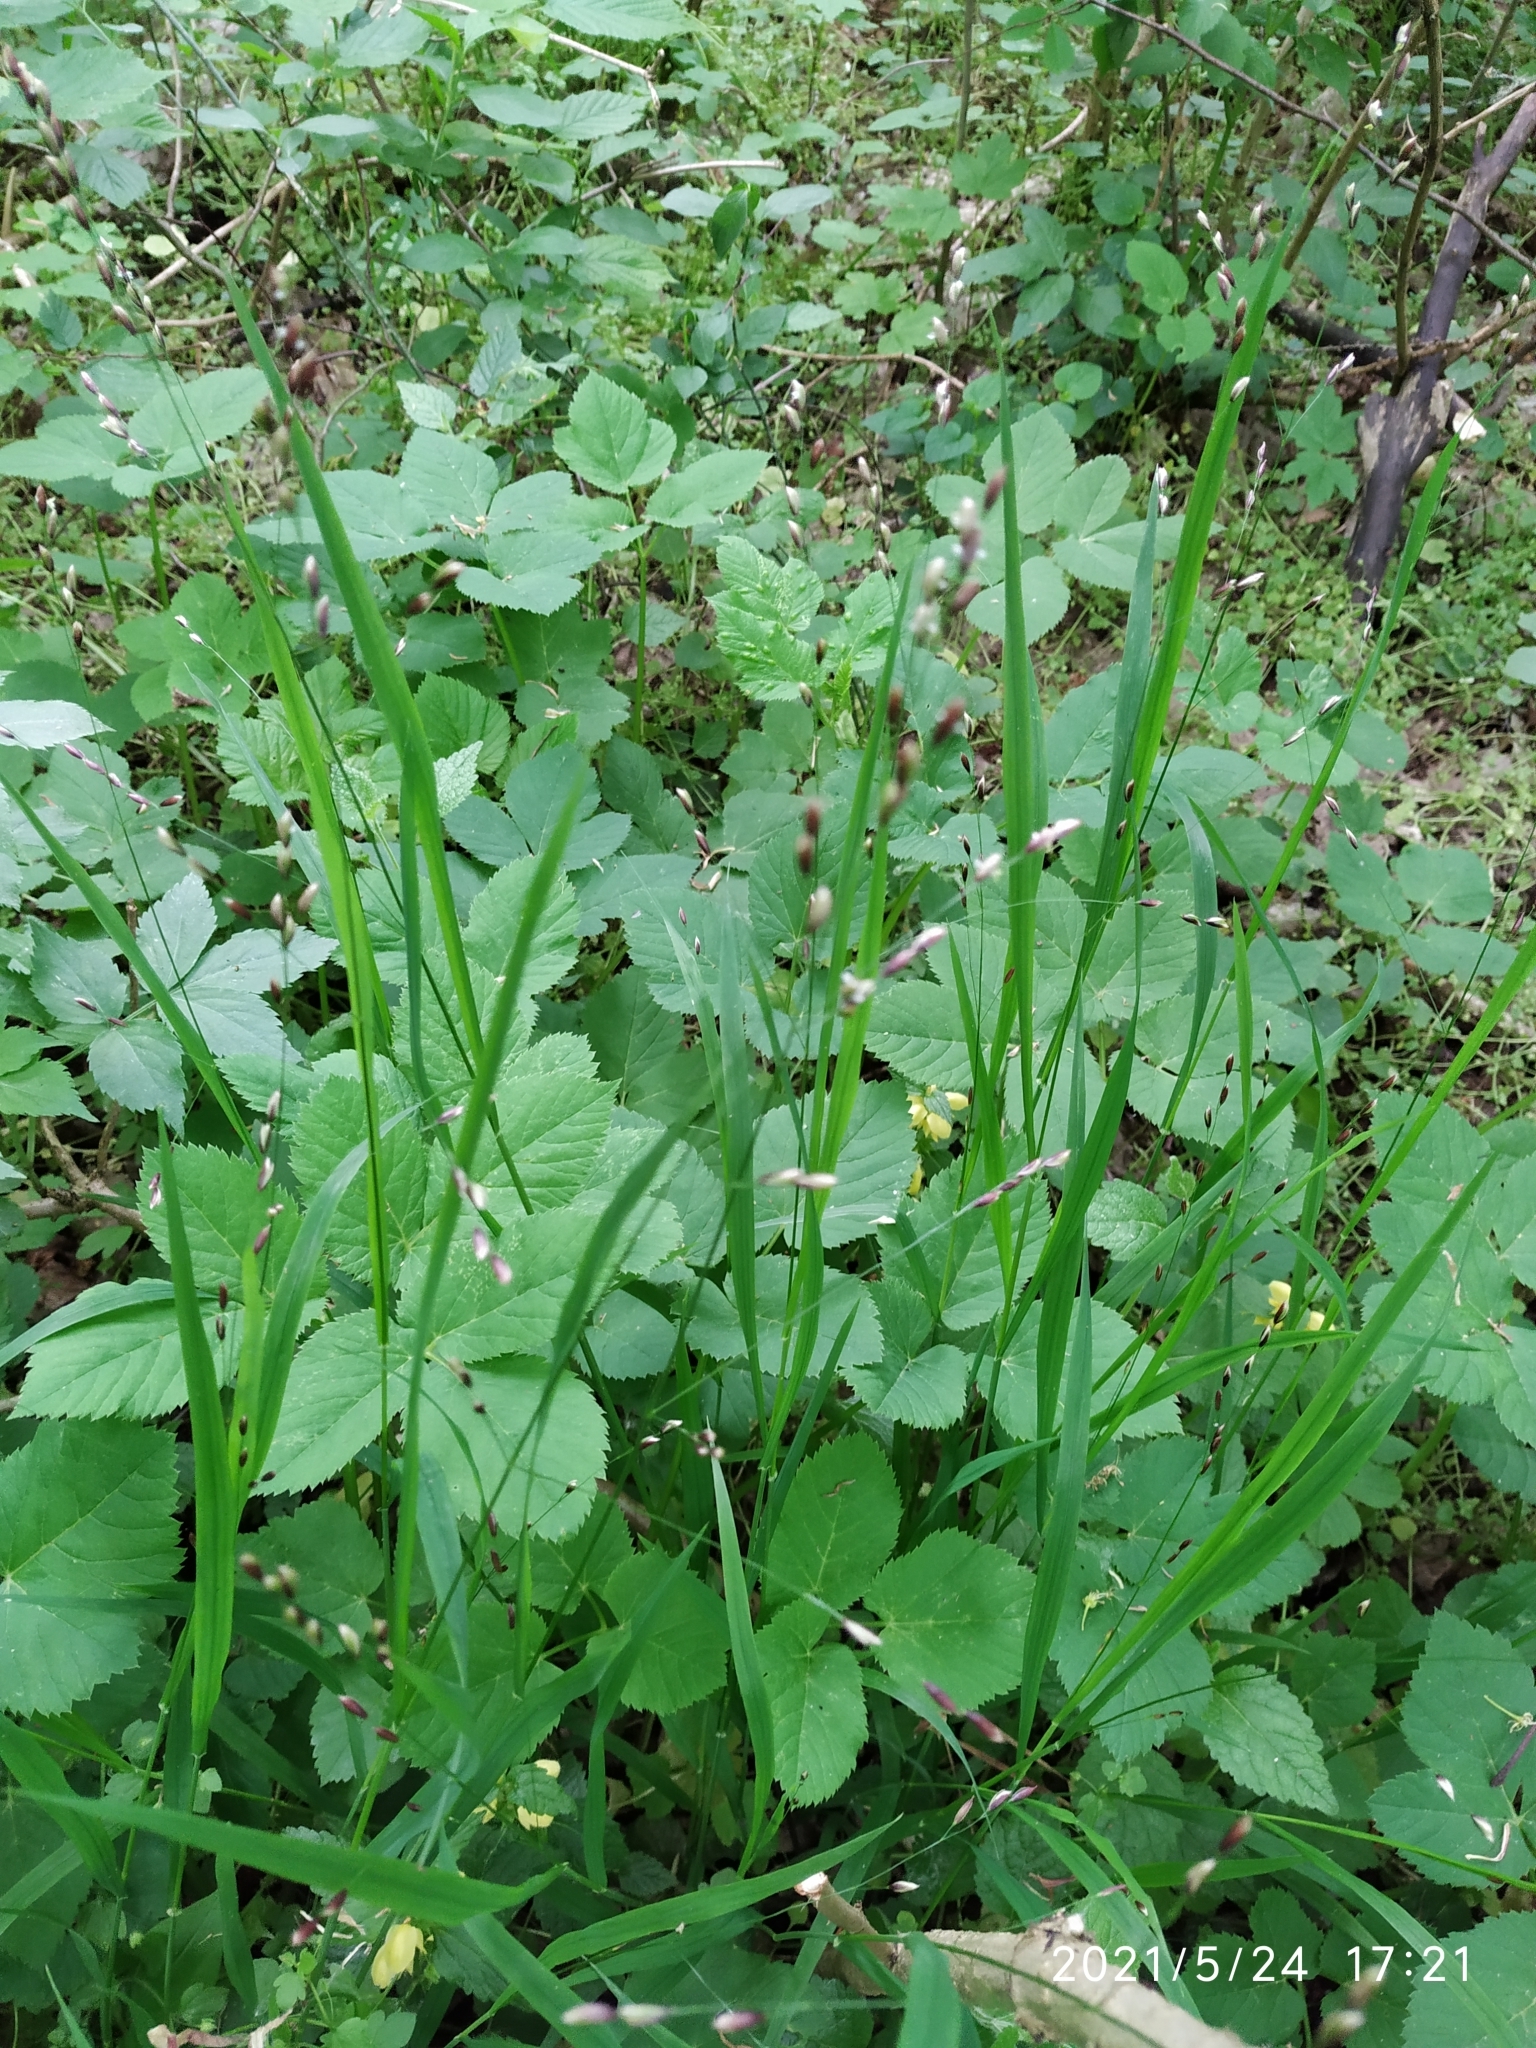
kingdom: Plantae
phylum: Tracheophyta
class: Liliopsida
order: Poales
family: Poaceae
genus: Melica
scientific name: Melica uniflora
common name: Wood melick
